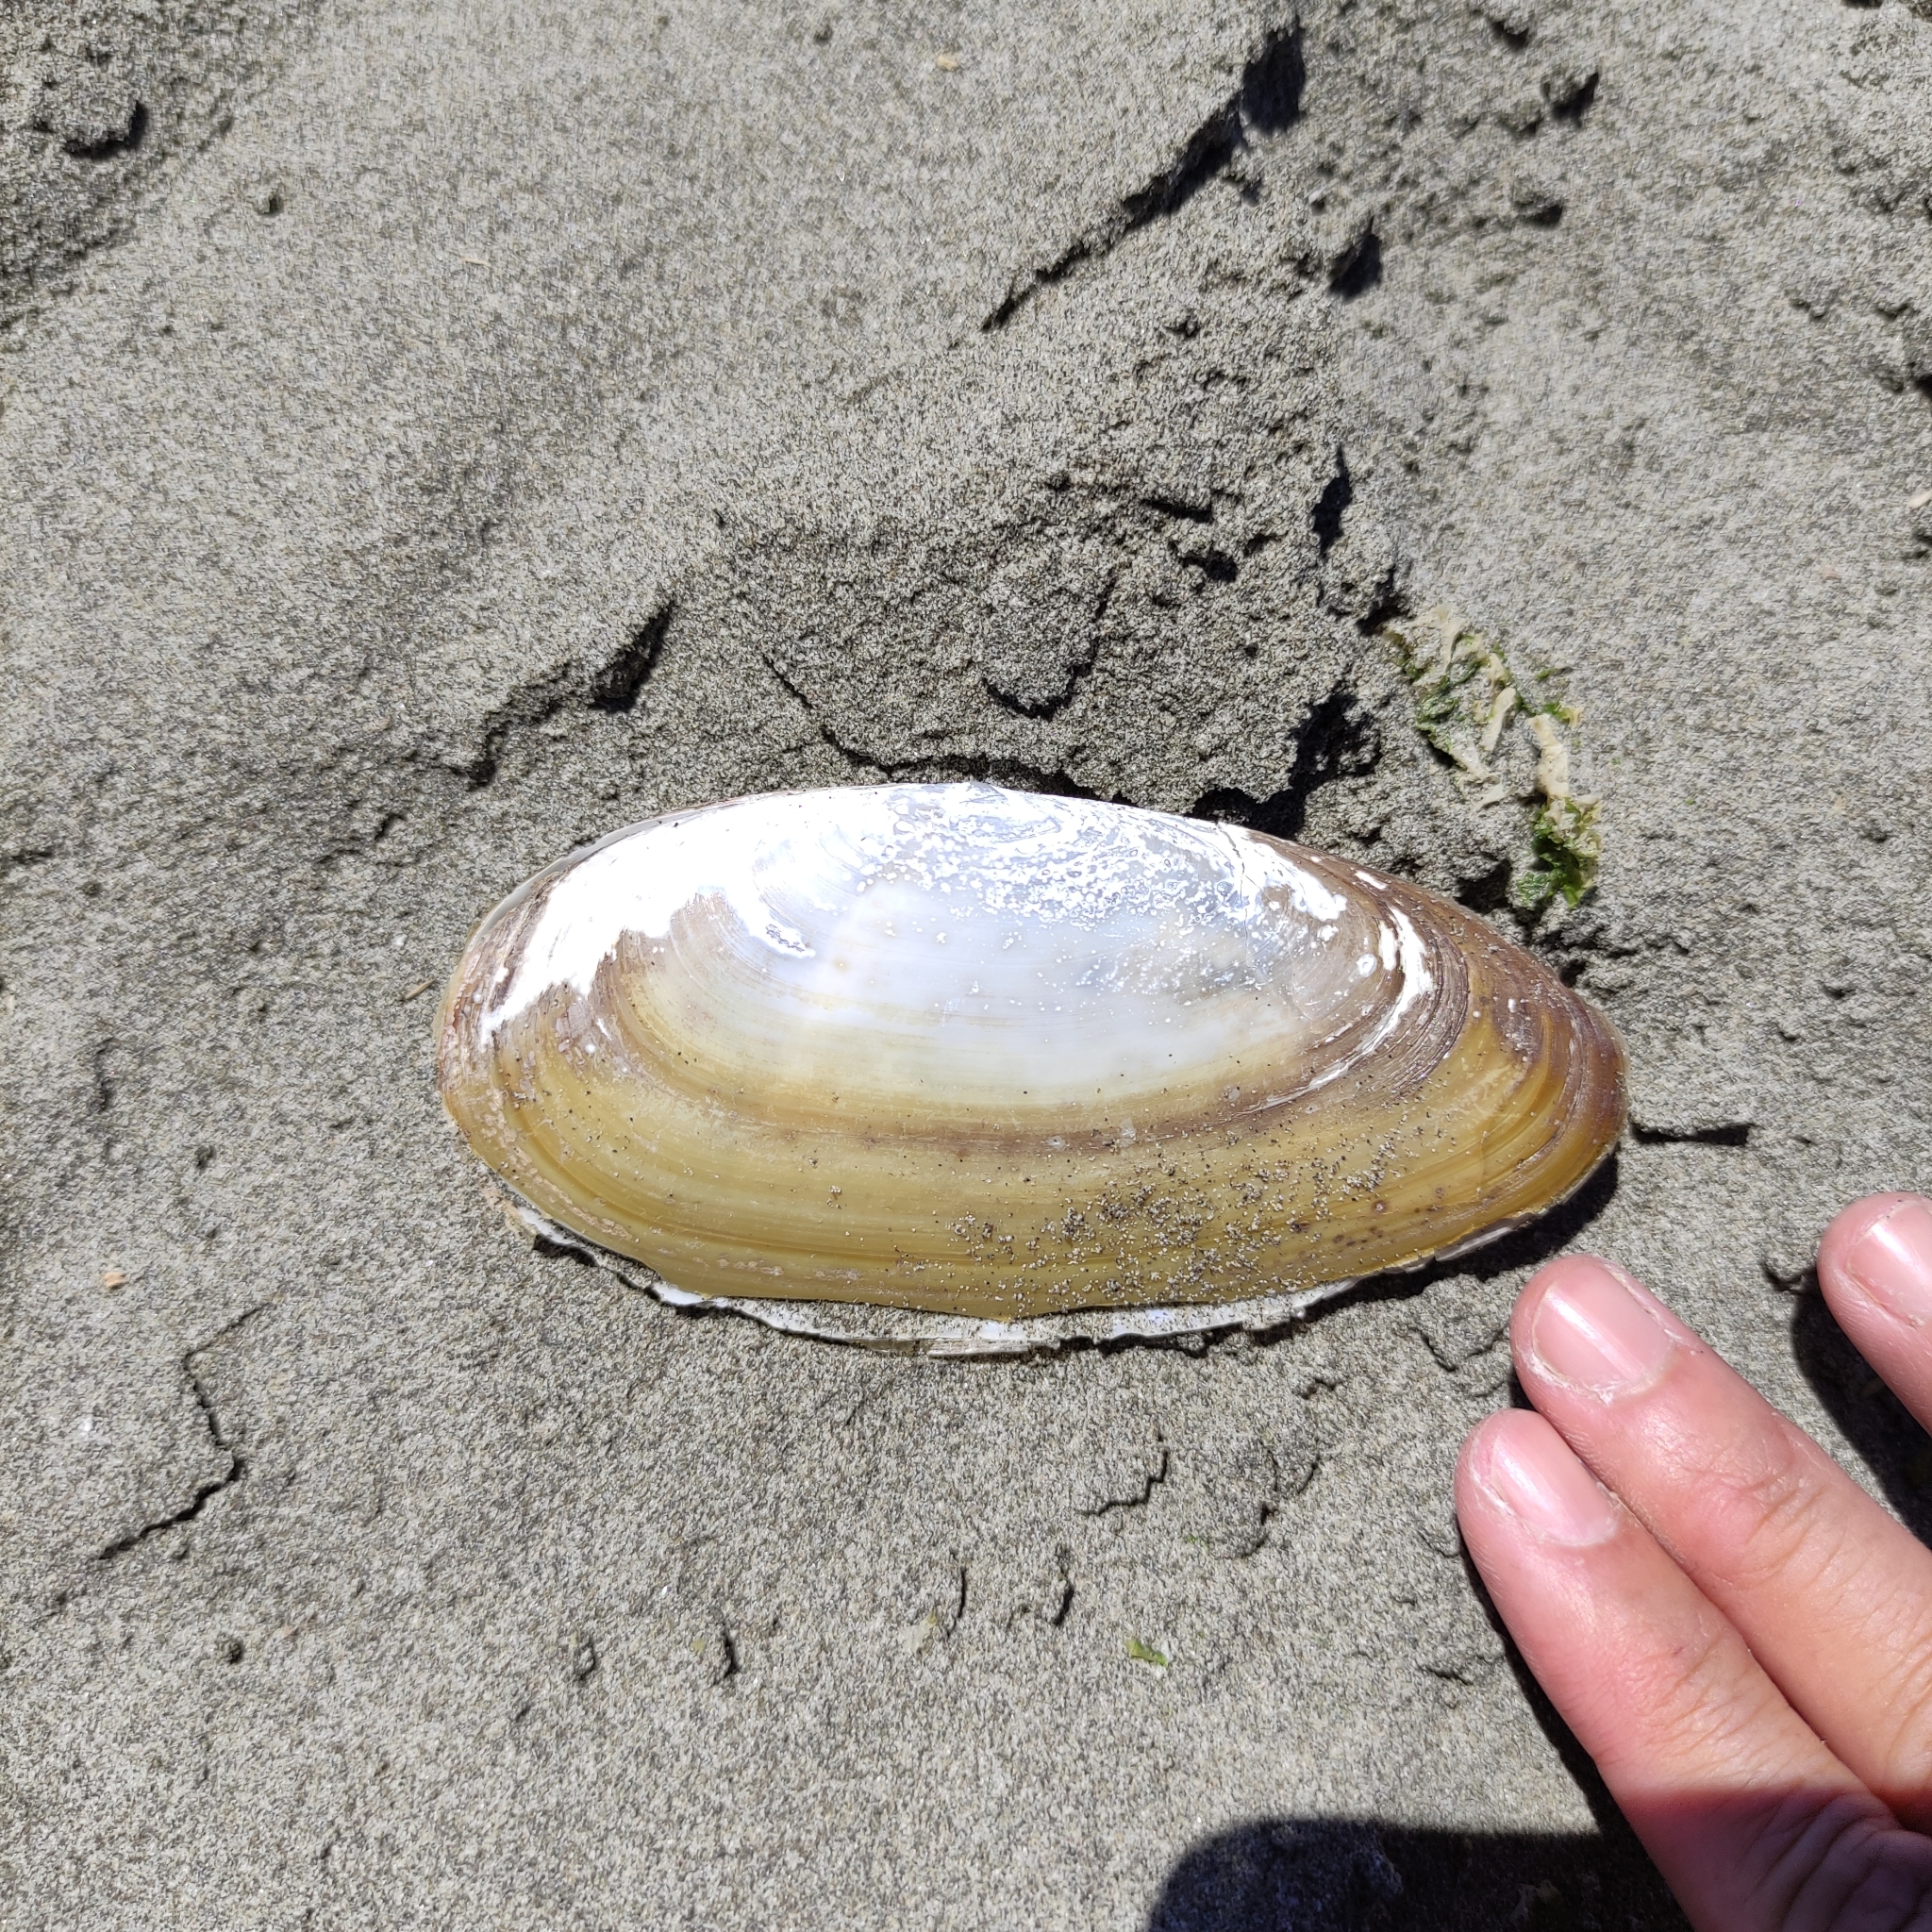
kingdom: Animalia
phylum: Mollusca
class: Bivalvia
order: Venerida
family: Mactridae
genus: Resania
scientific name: Resania lanceolata
